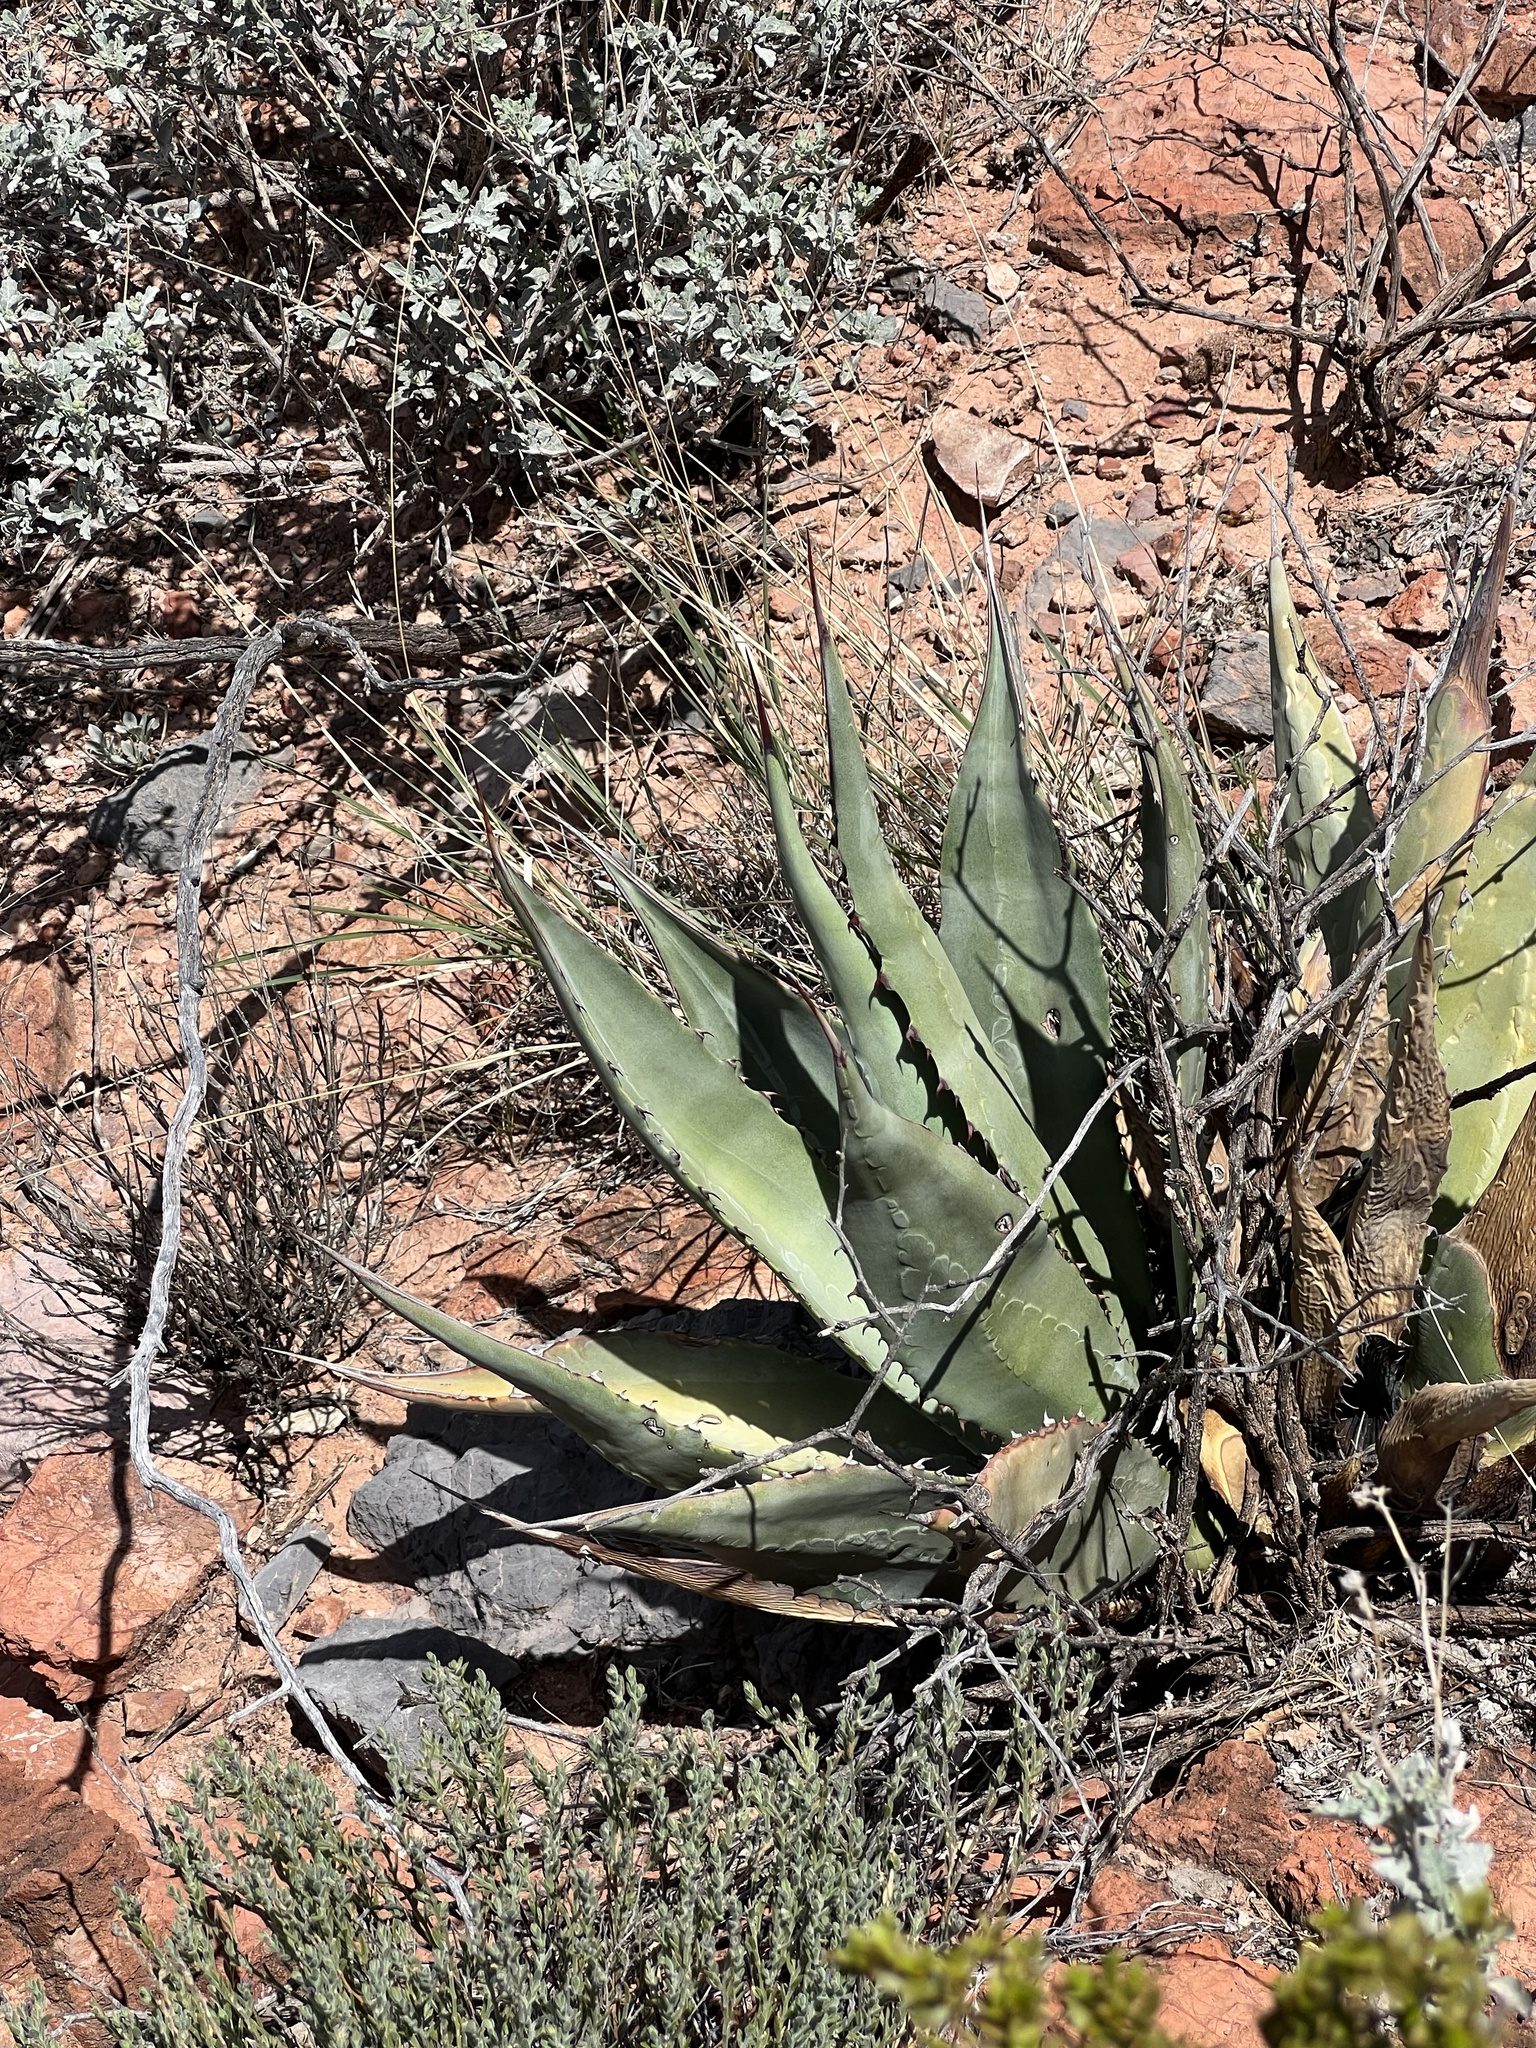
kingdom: Plantae
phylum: Tracheophyta
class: Liliopsida
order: Asparagales
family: Asparagaceae
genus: Agave
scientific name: Agave palmeri
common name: Palmer agave
